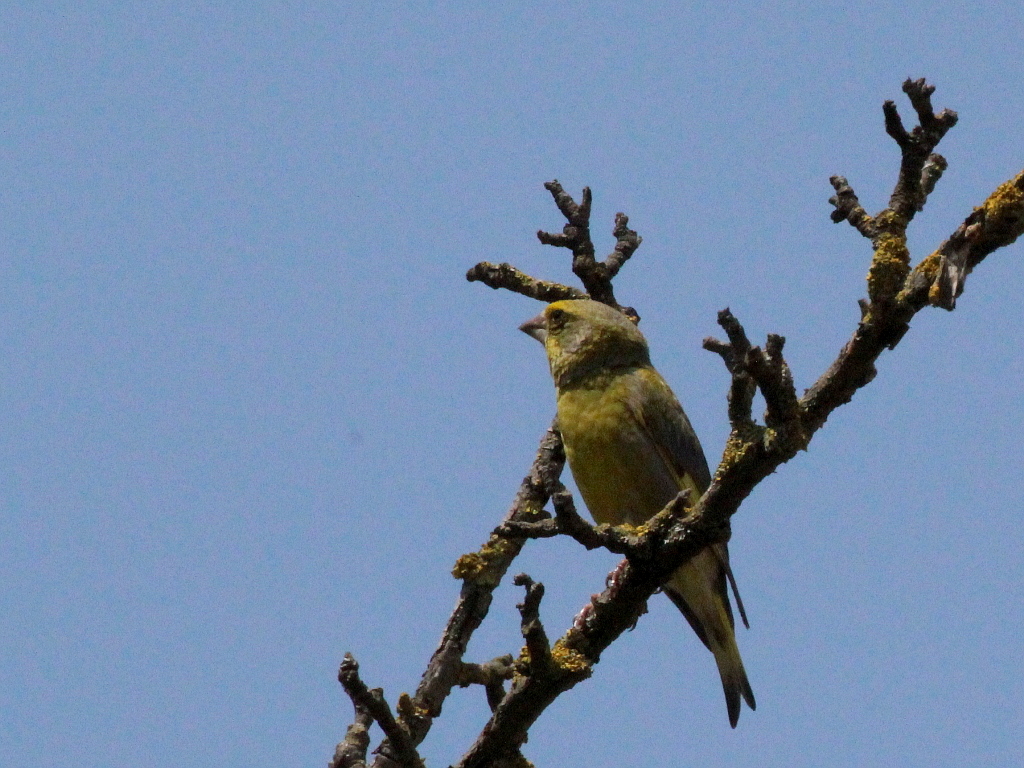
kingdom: Plantae
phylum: Tracheophyta
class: Liliopsida
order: Poales
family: Poaceae
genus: Chloris
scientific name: Chloris chloris
